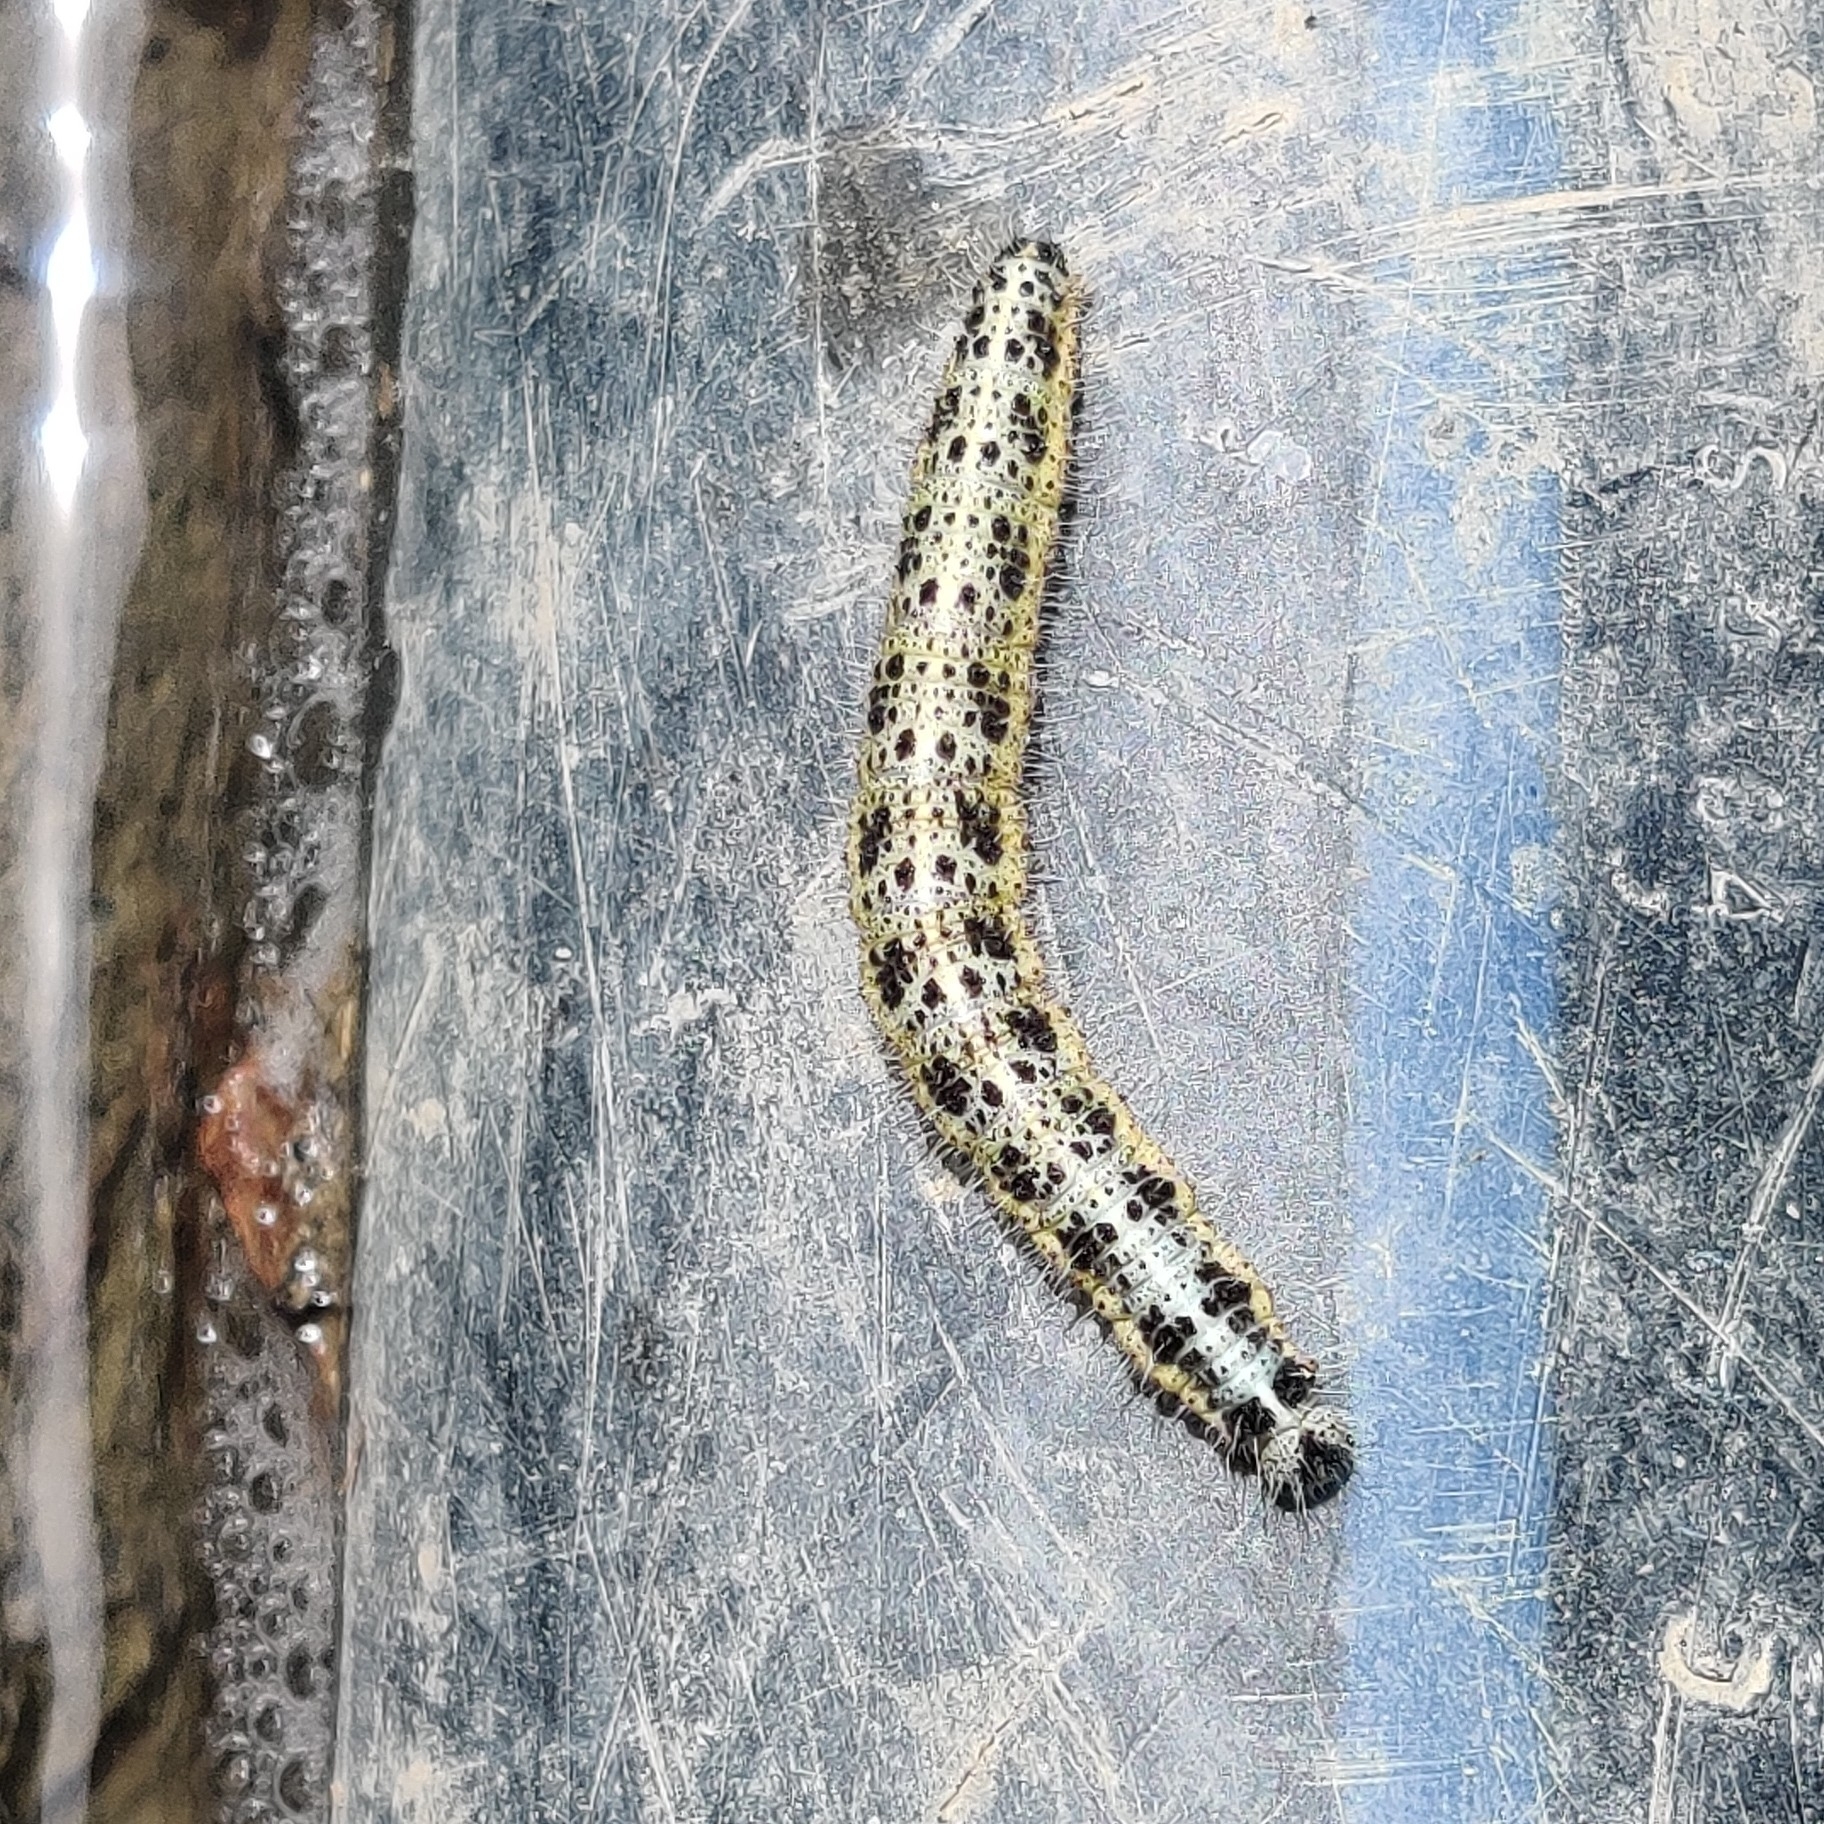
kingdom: Animalia
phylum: Arthropoda
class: Insecta
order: Lepidoptera
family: Pieridae
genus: Pieris
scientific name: Pieris brassicae
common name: Large white
